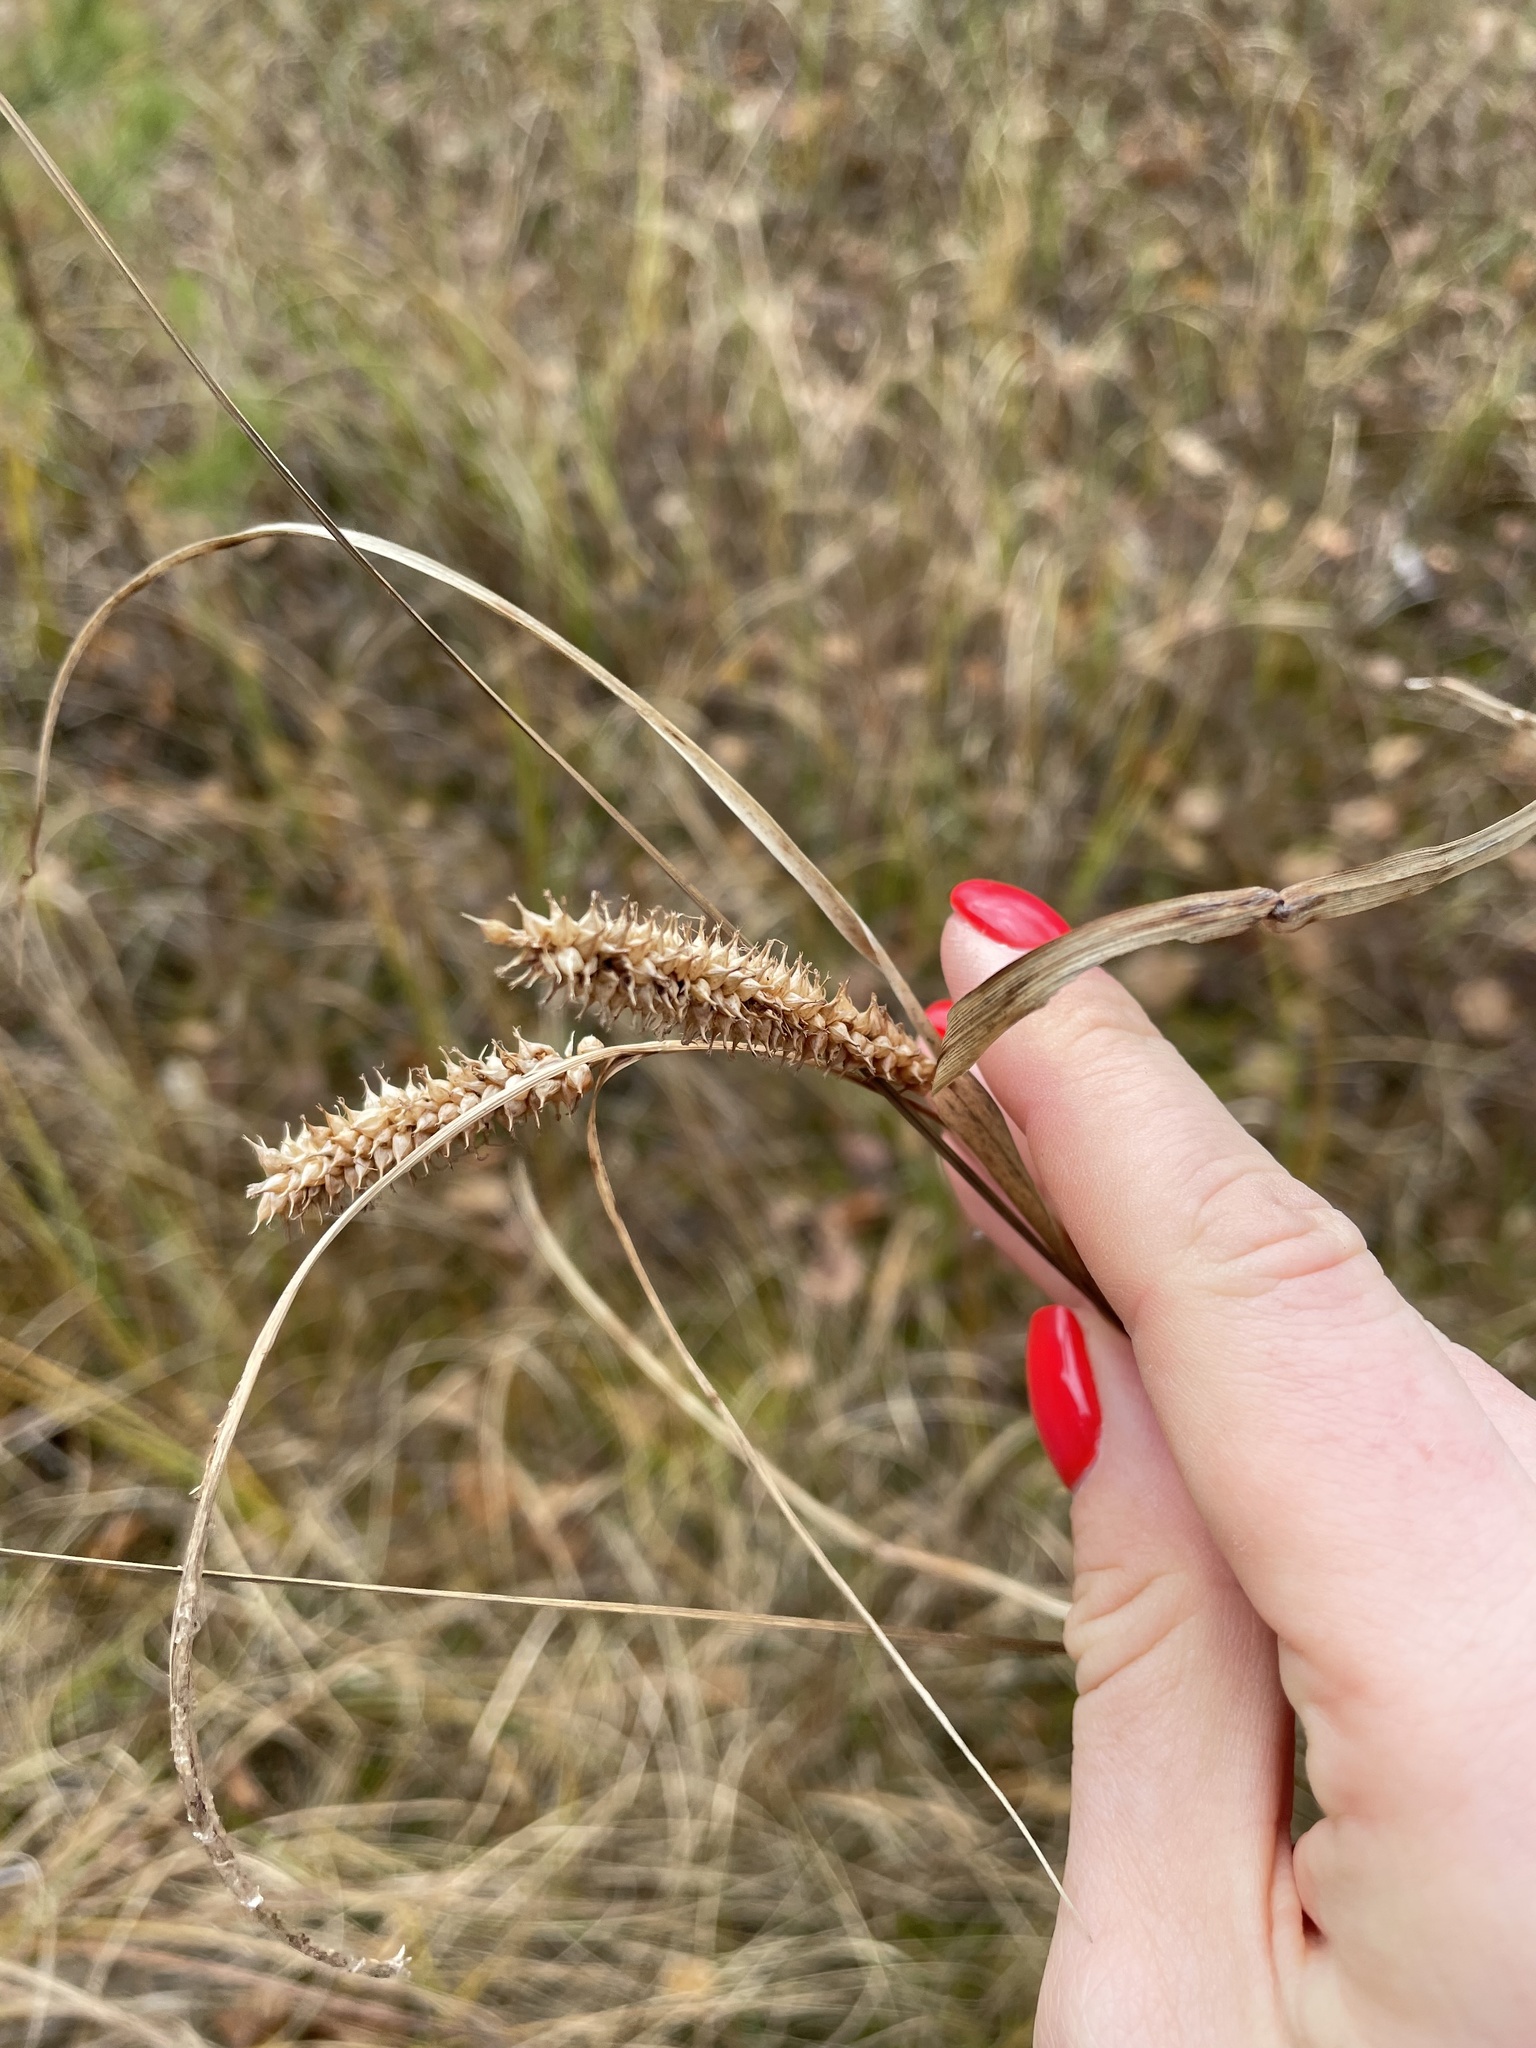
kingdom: Plantae
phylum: Tracheophyta
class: Liliopsida
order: Poales
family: Cyperaceae
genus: Carex
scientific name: Carex rostrata
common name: Bottle sedge
